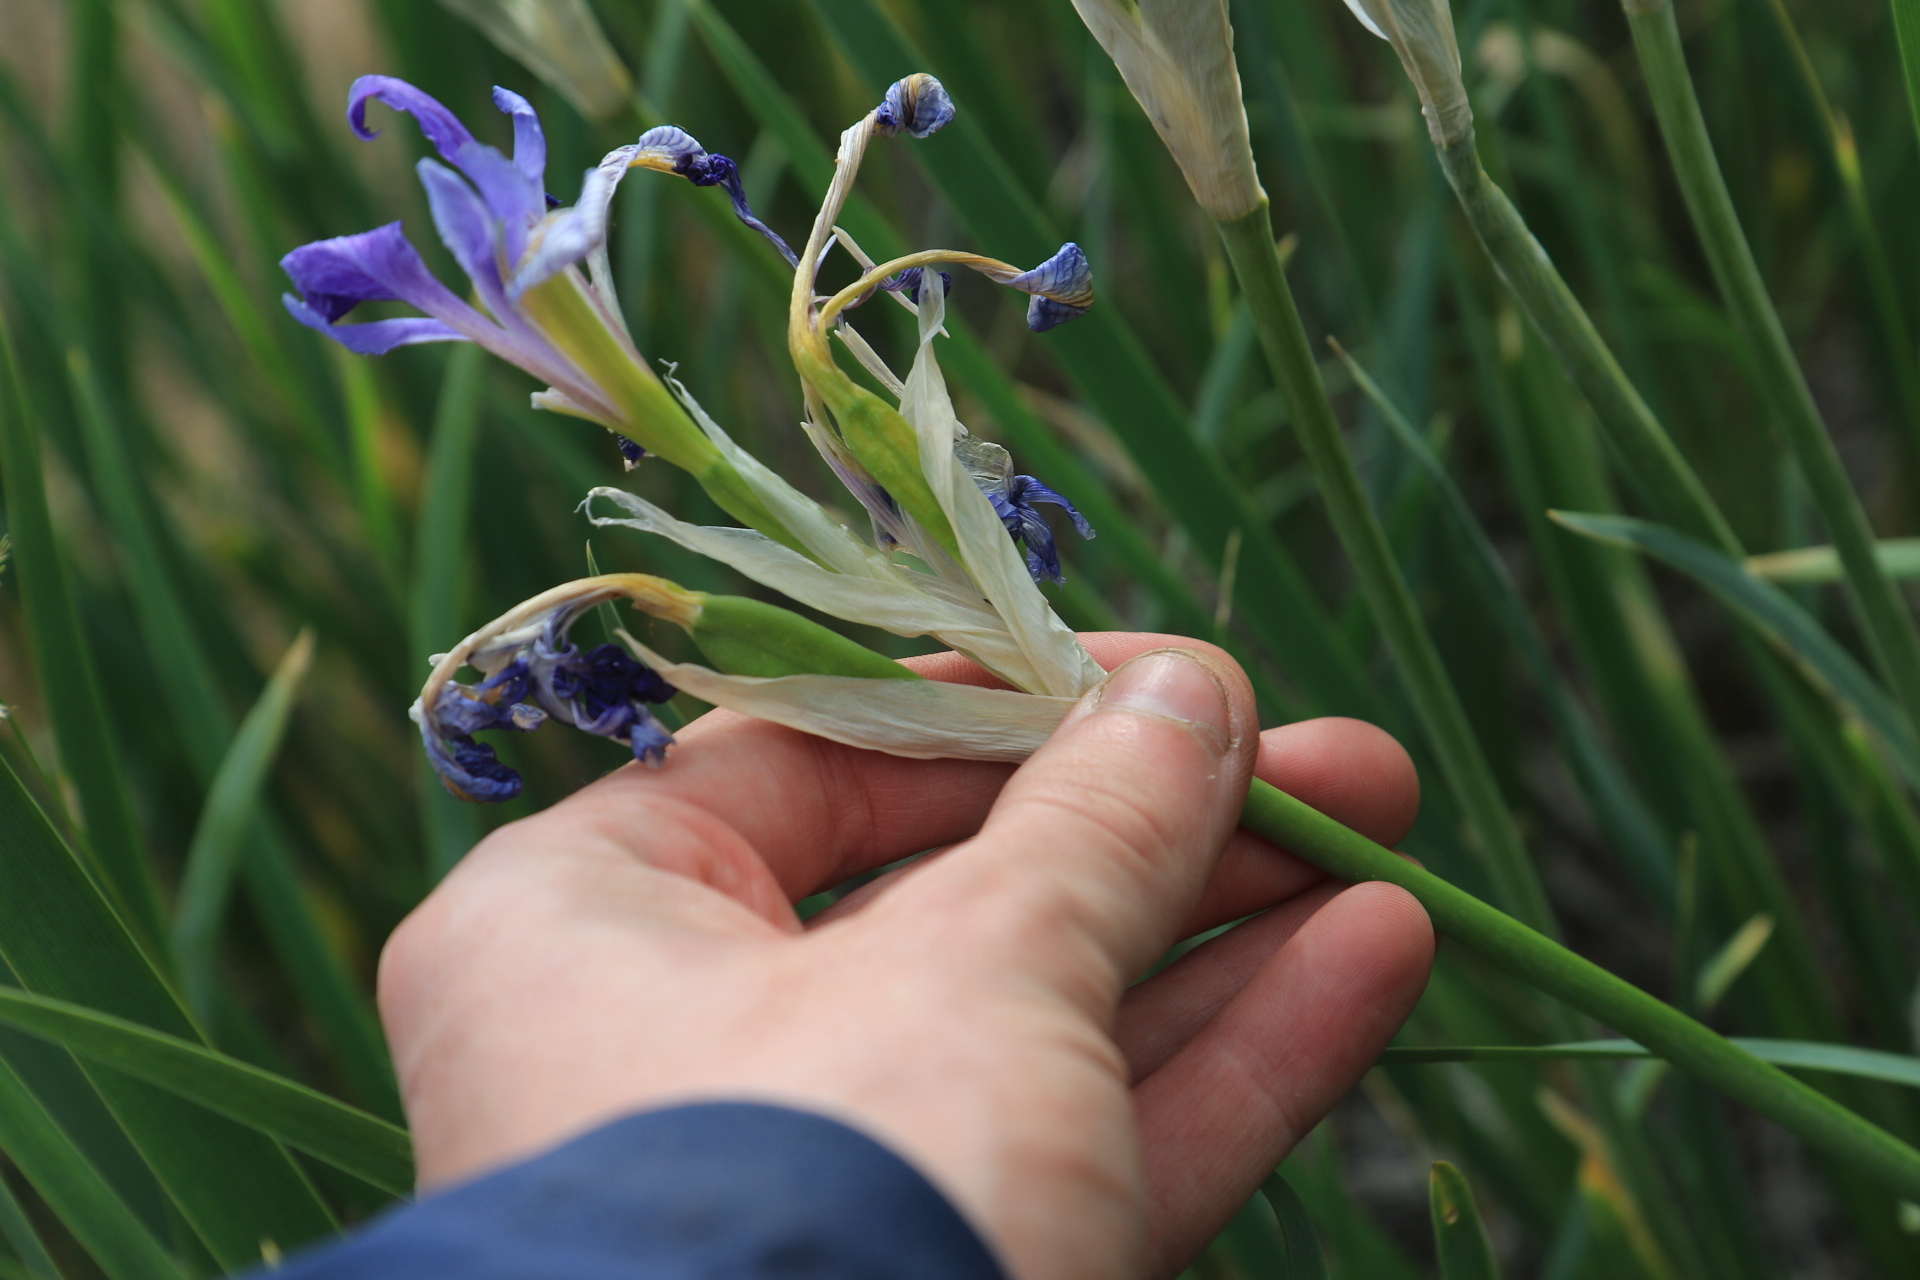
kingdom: Plantae
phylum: Tracheophyta
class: Liliopsida
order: Asparagales
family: Iridaceae
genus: Iris
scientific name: Iris missouriensis
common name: Rocky mountain iris
